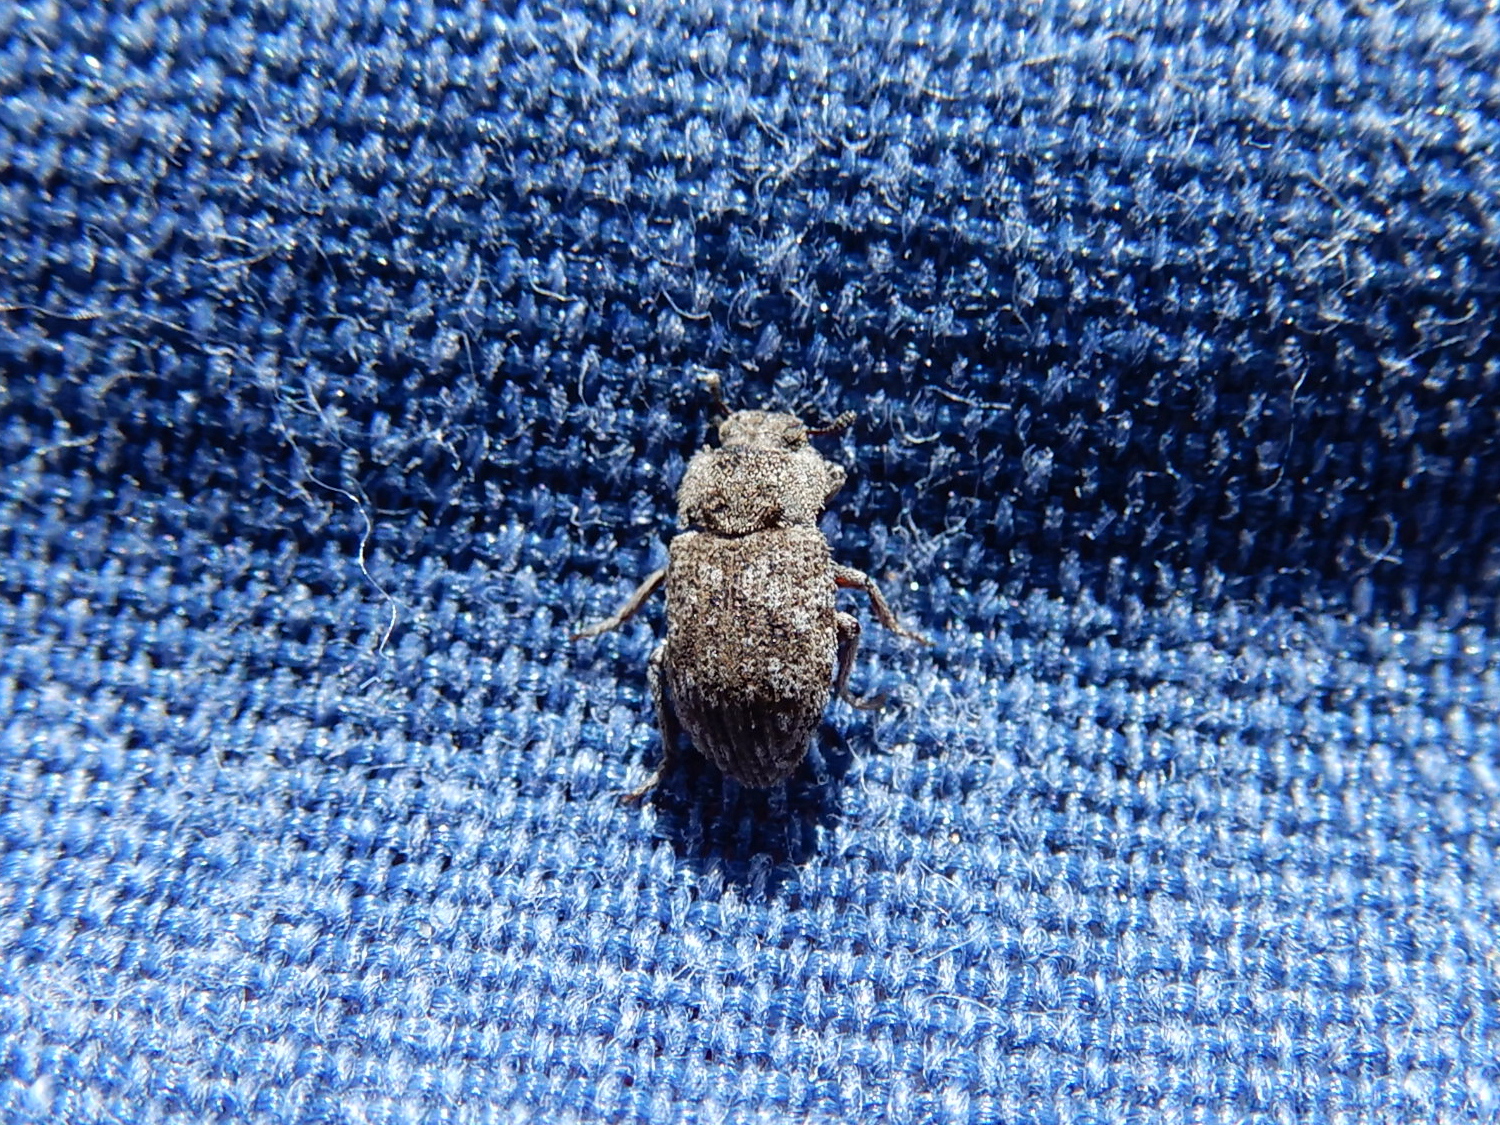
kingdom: Animalia
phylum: Arthropoda
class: Insecta
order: Coleoptera
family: Tenebrionidae
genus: Leichenum
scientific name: Leichenum canaliculatum
